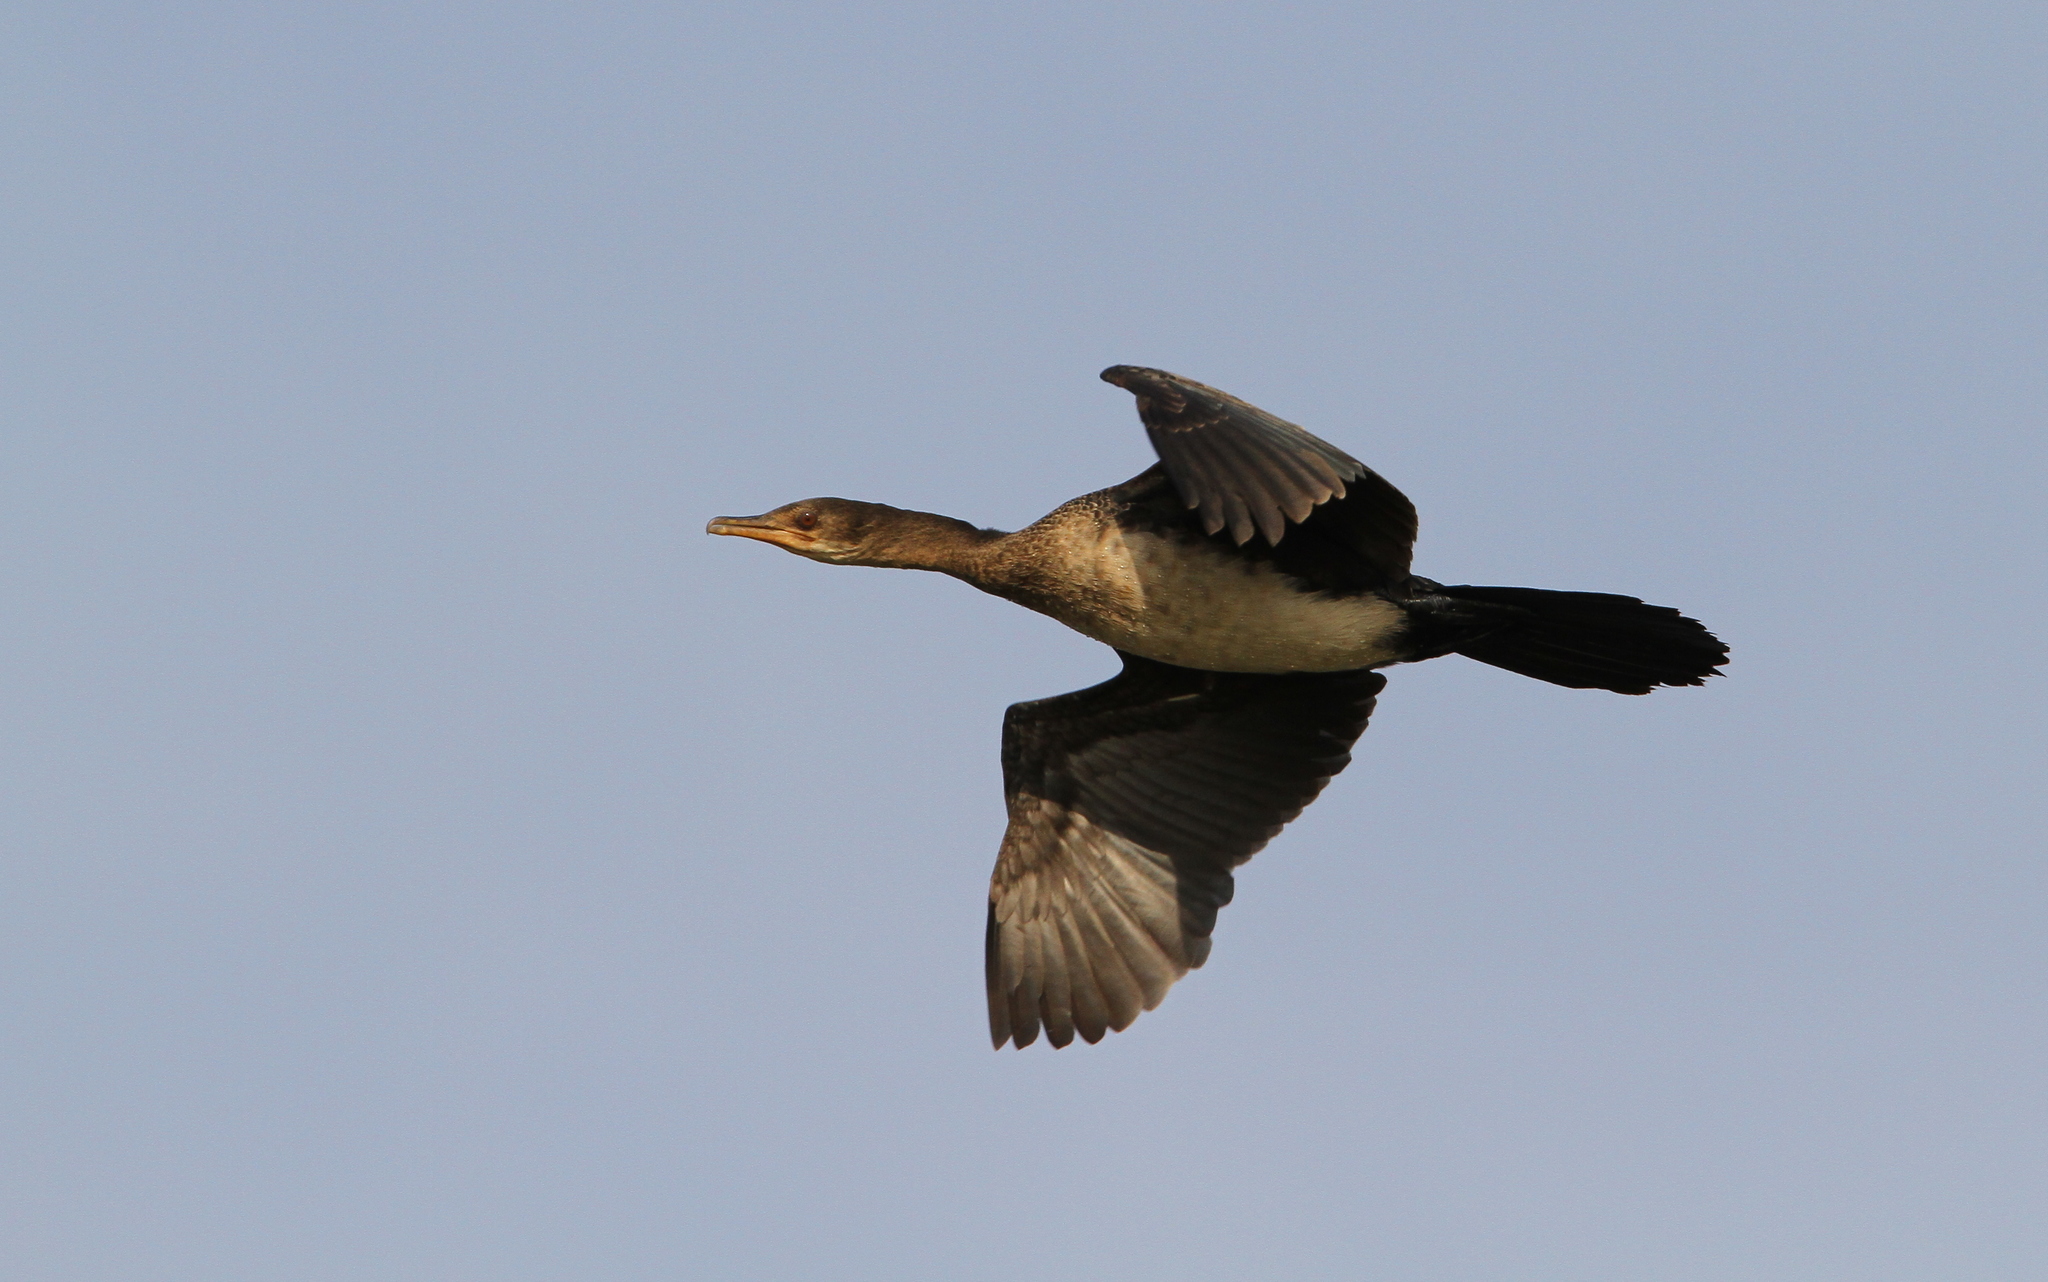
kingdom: Animalia
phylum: Chordata
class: Aves
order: Suliformes
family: Phalacrocoracidae
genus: Microcarbo
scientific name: Microcarbo africanus
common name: Long-tailed cormorant
